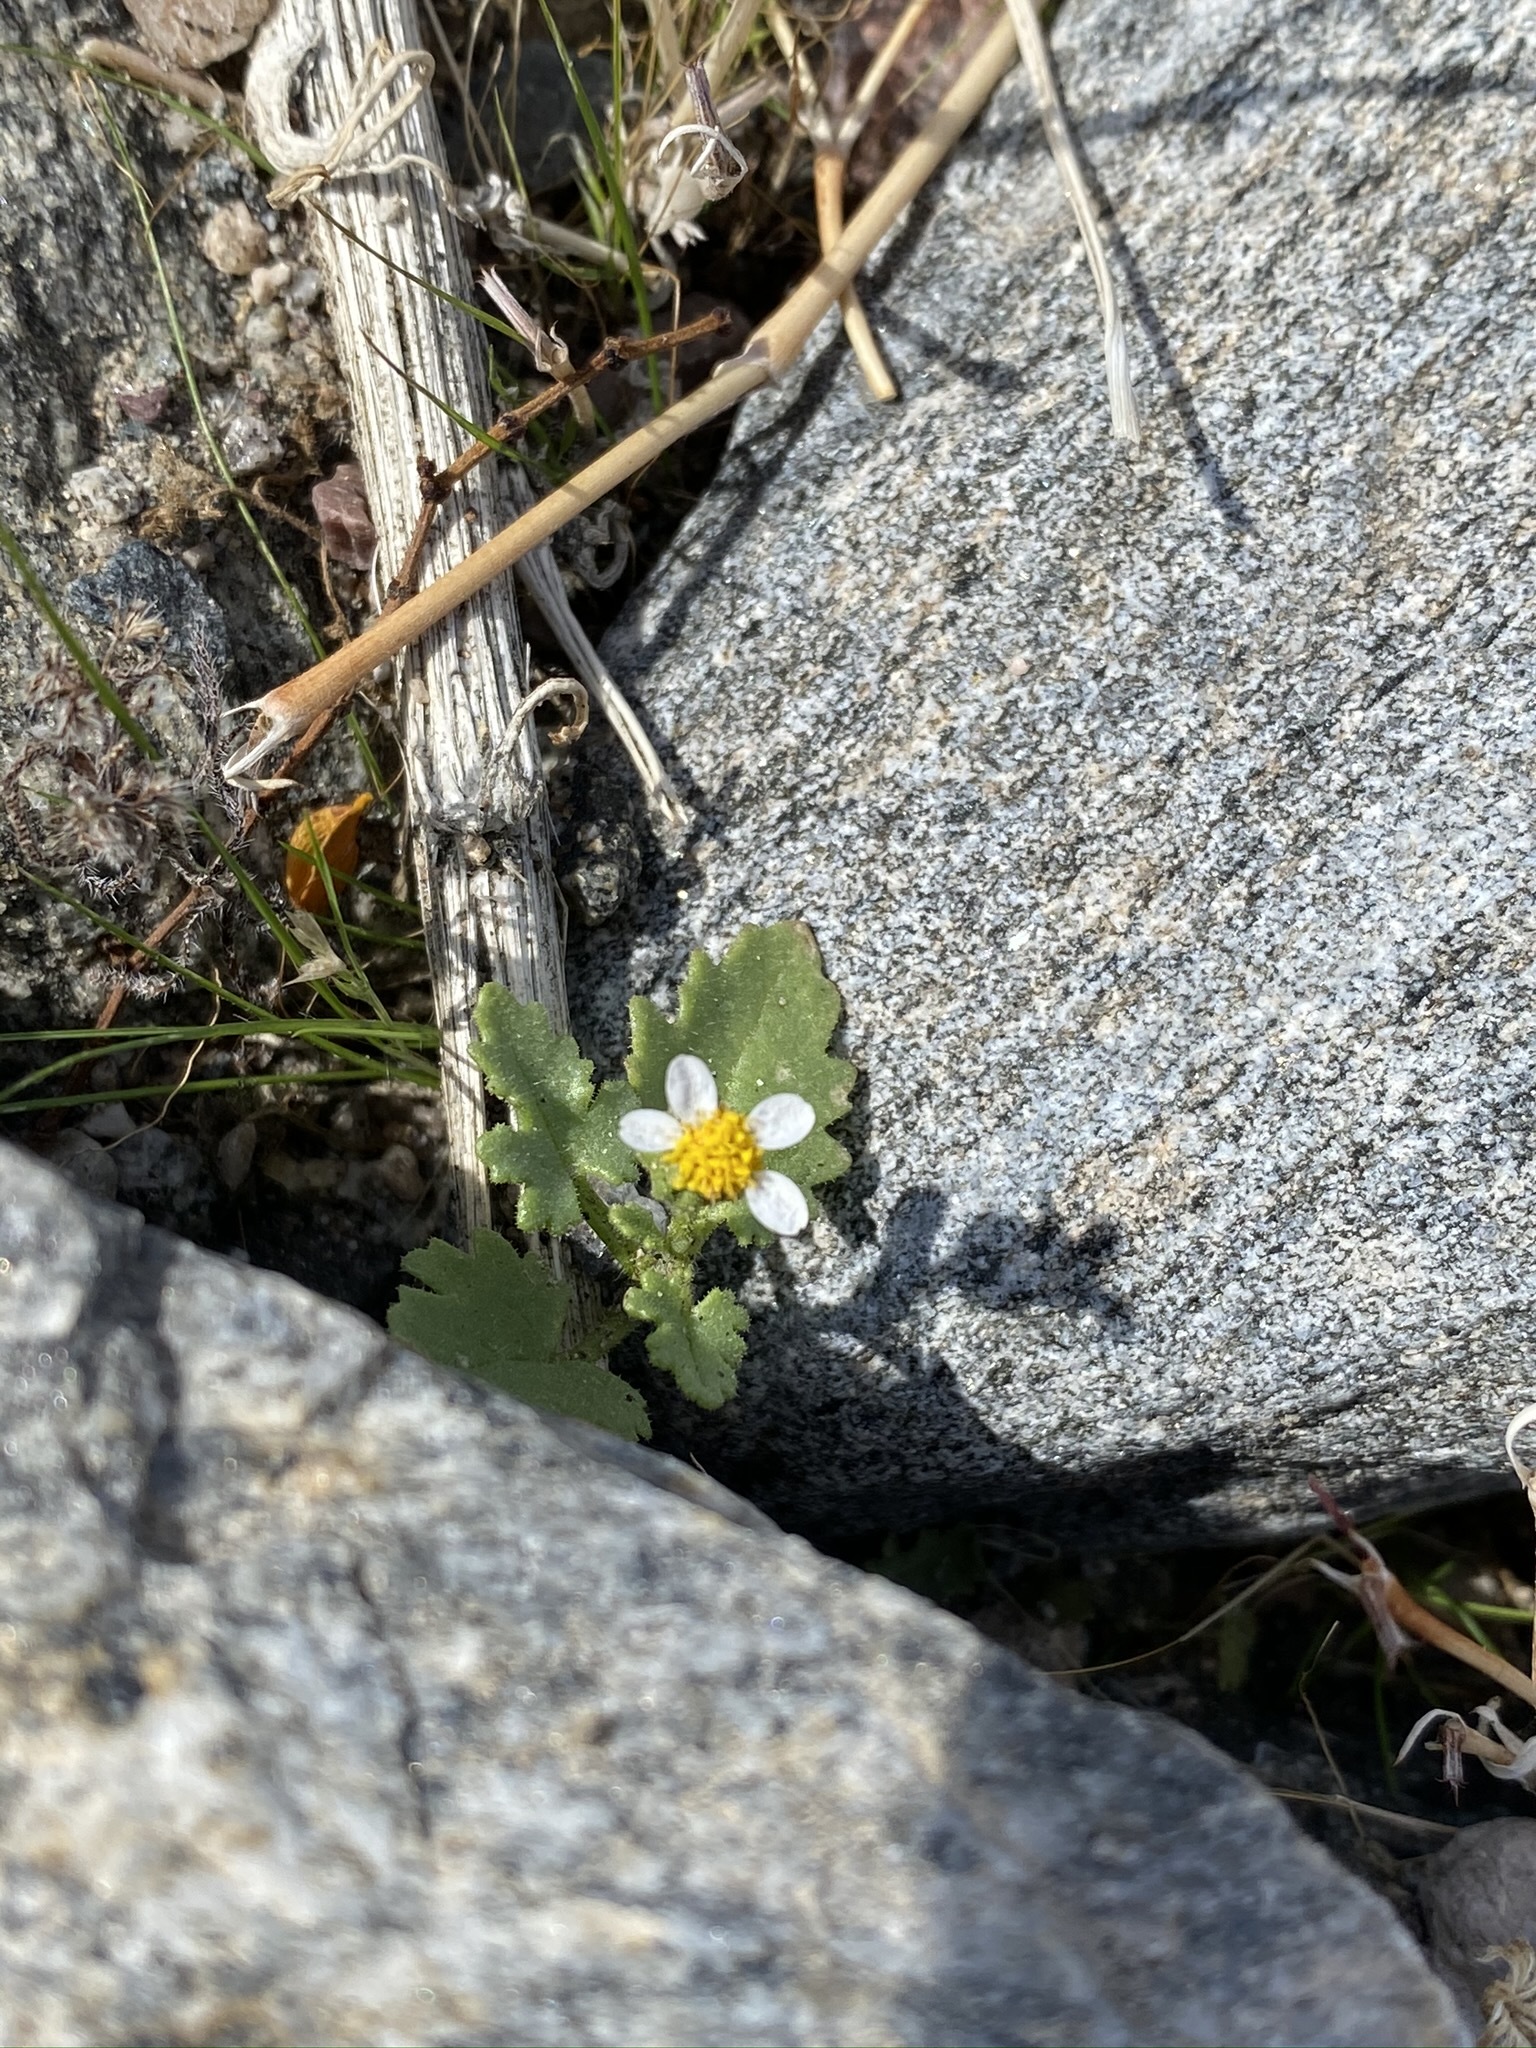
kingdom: Plantae
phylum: Tracheophyta
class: Magnoliopsida
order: Asterales
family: Asteraceae
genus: Laphamia
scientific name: Laphamia emoryi
